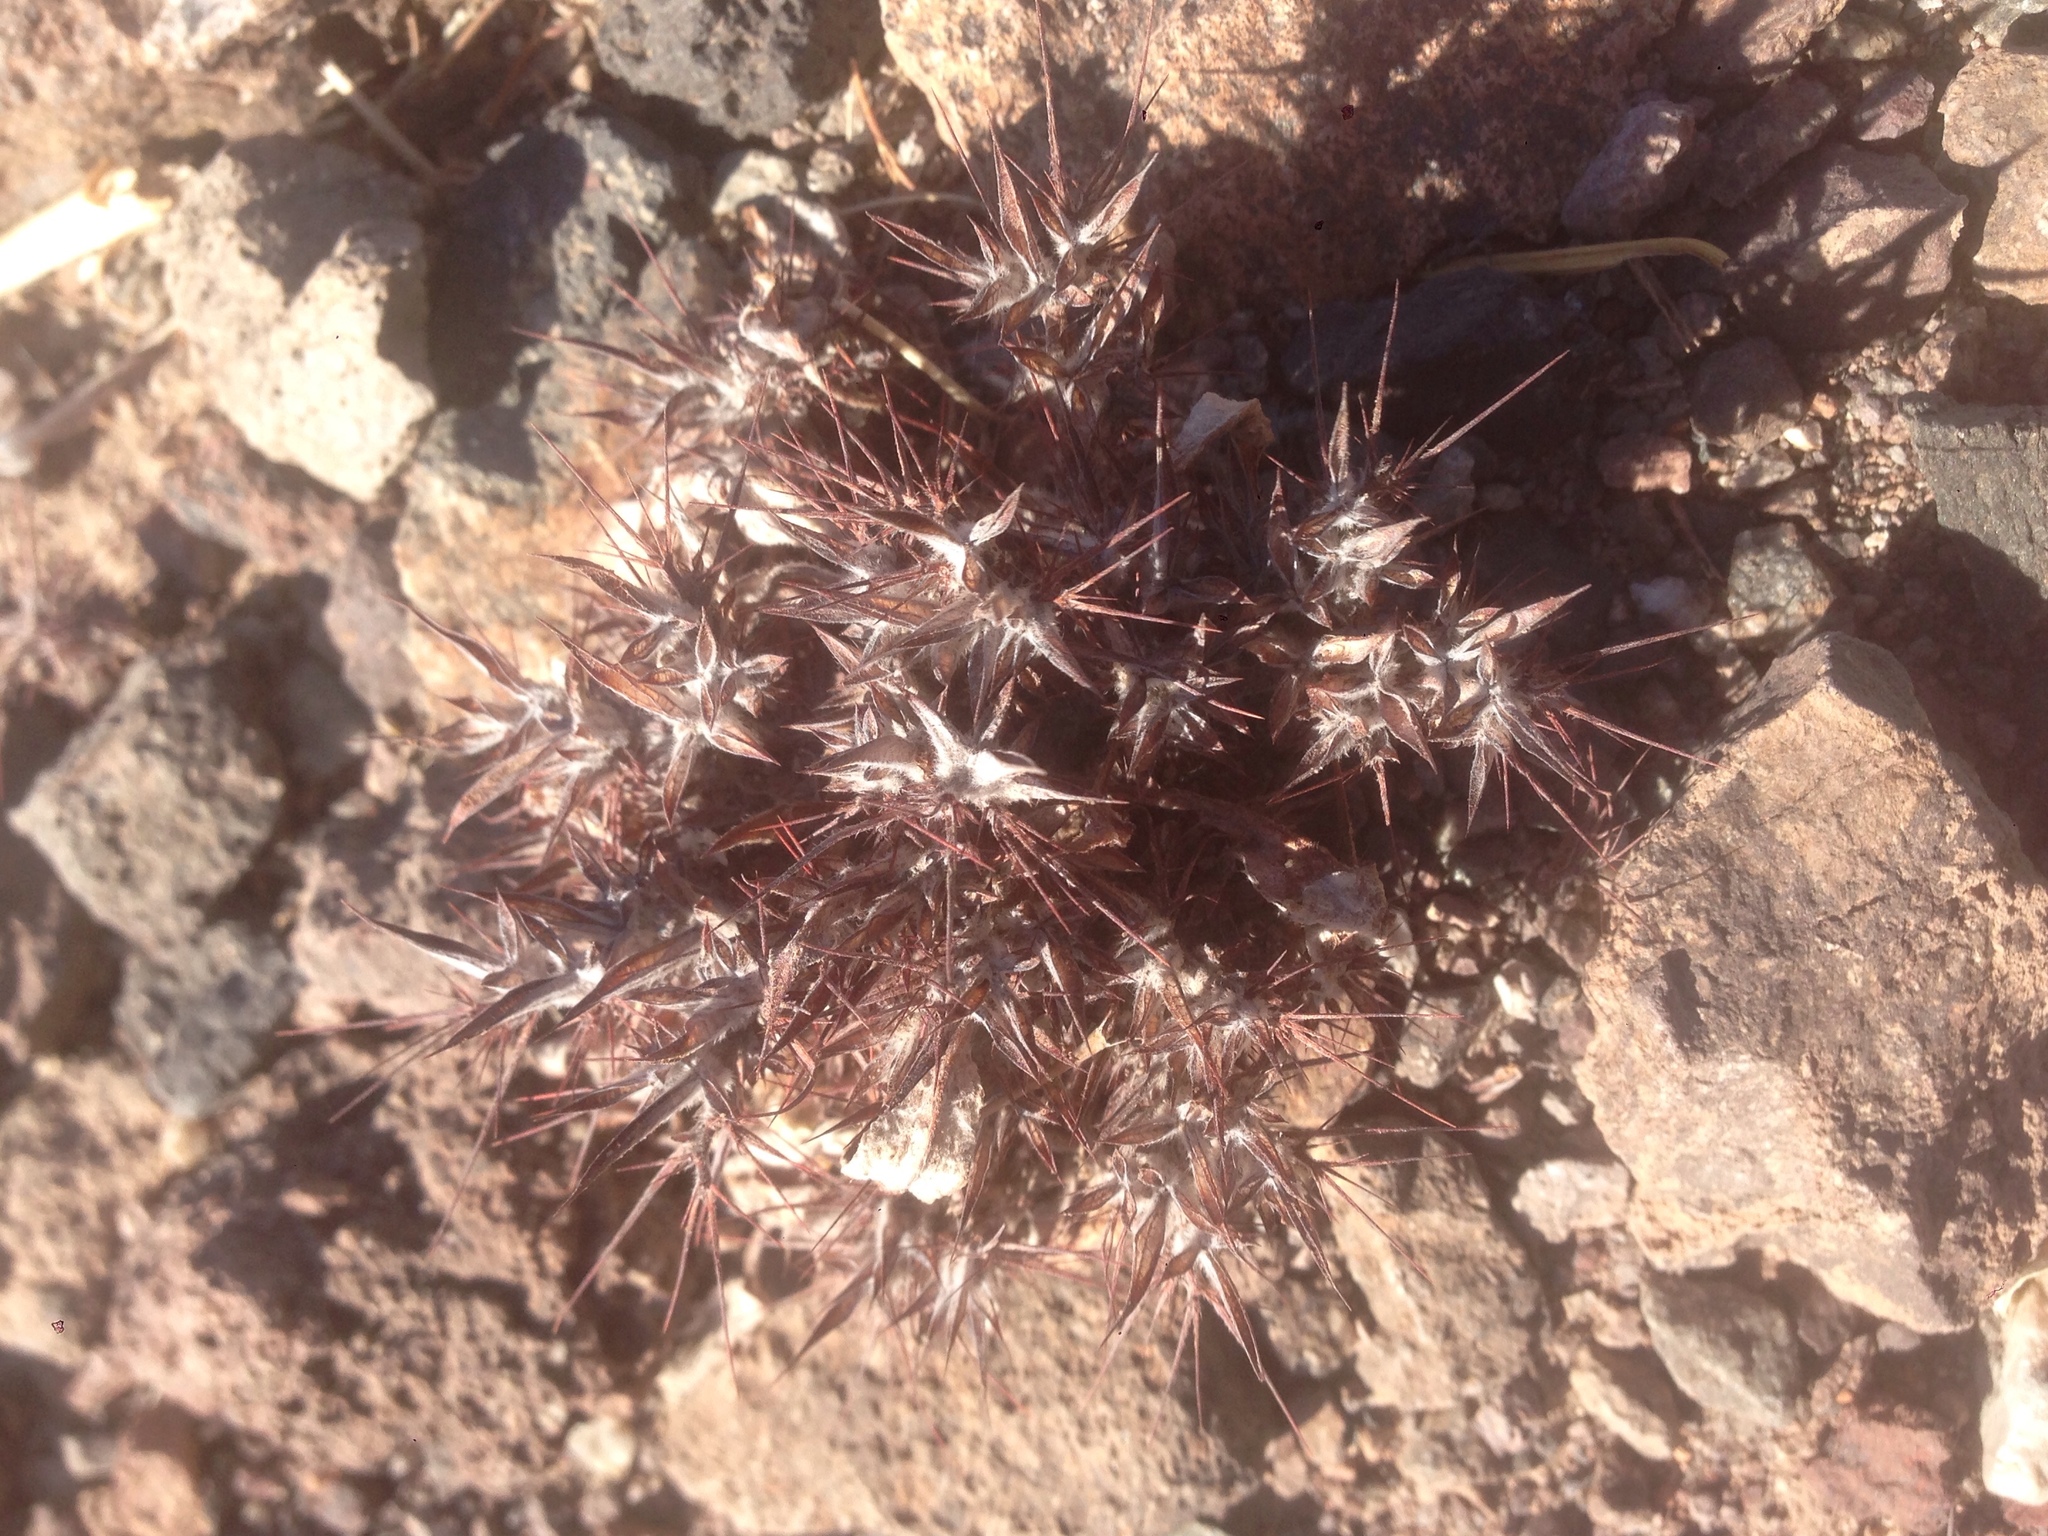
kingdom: Plantae
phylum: Tracheophyta
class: Magnoliopsida
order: Caryophyllales
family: Polygonaceae
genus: Chorizanthe
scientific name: Chorizanthe rigida
